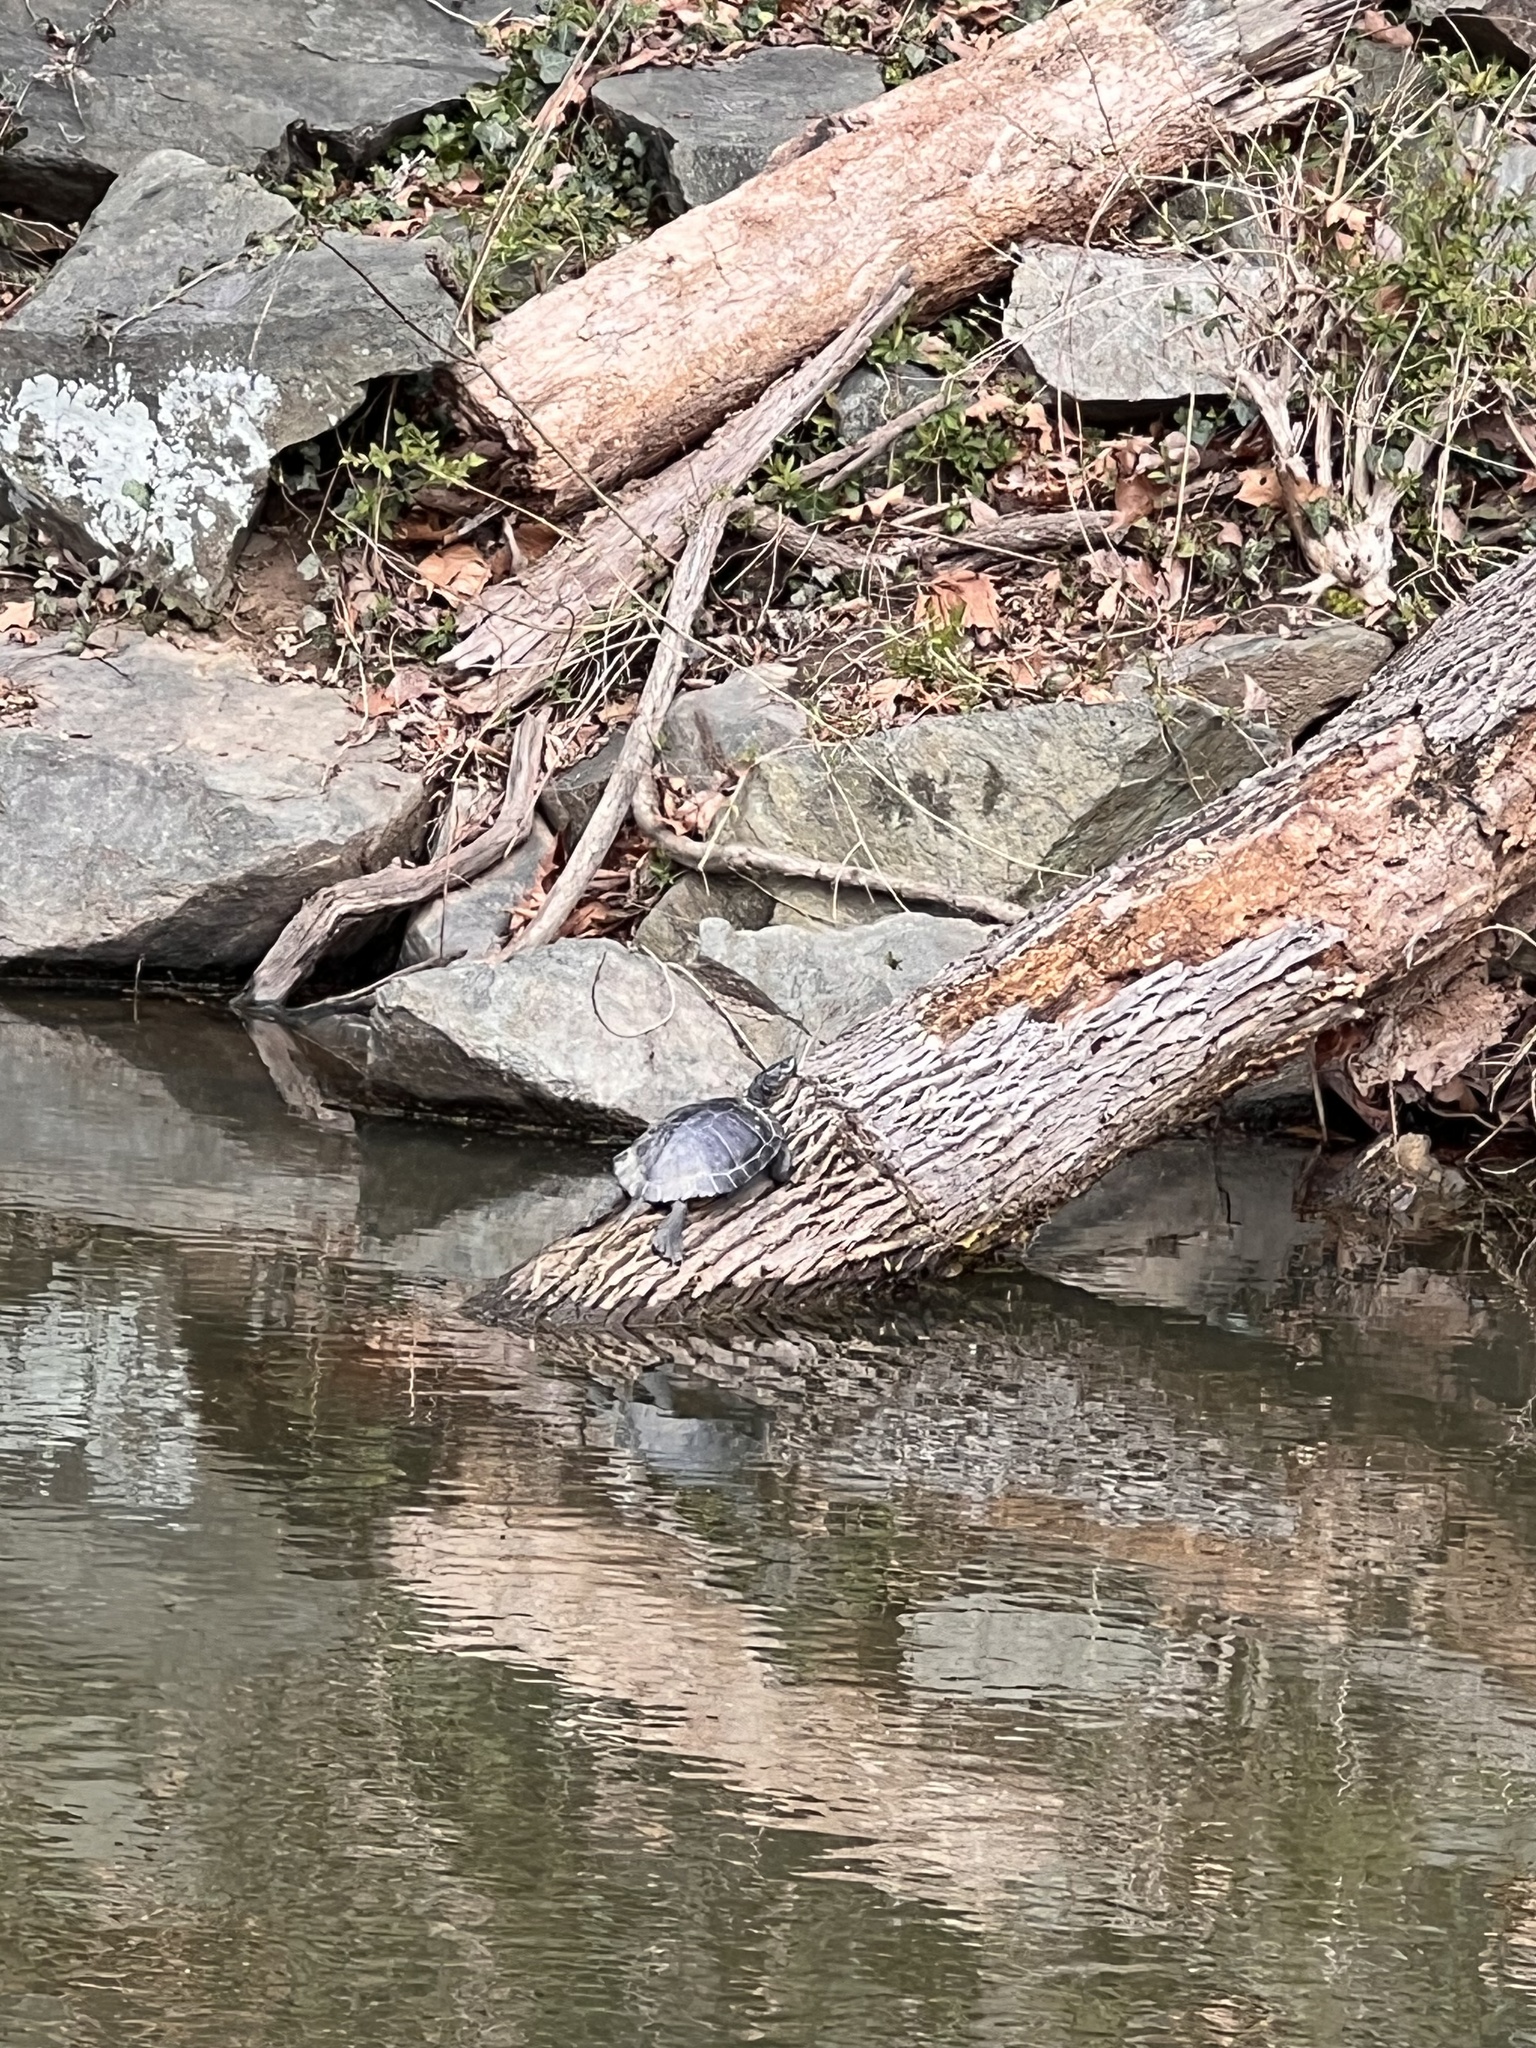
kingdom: Animalia
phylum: Chordata
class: Testudines
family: Emydidae
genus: Trachemys
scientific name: Trachemys scripta
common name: Slider
